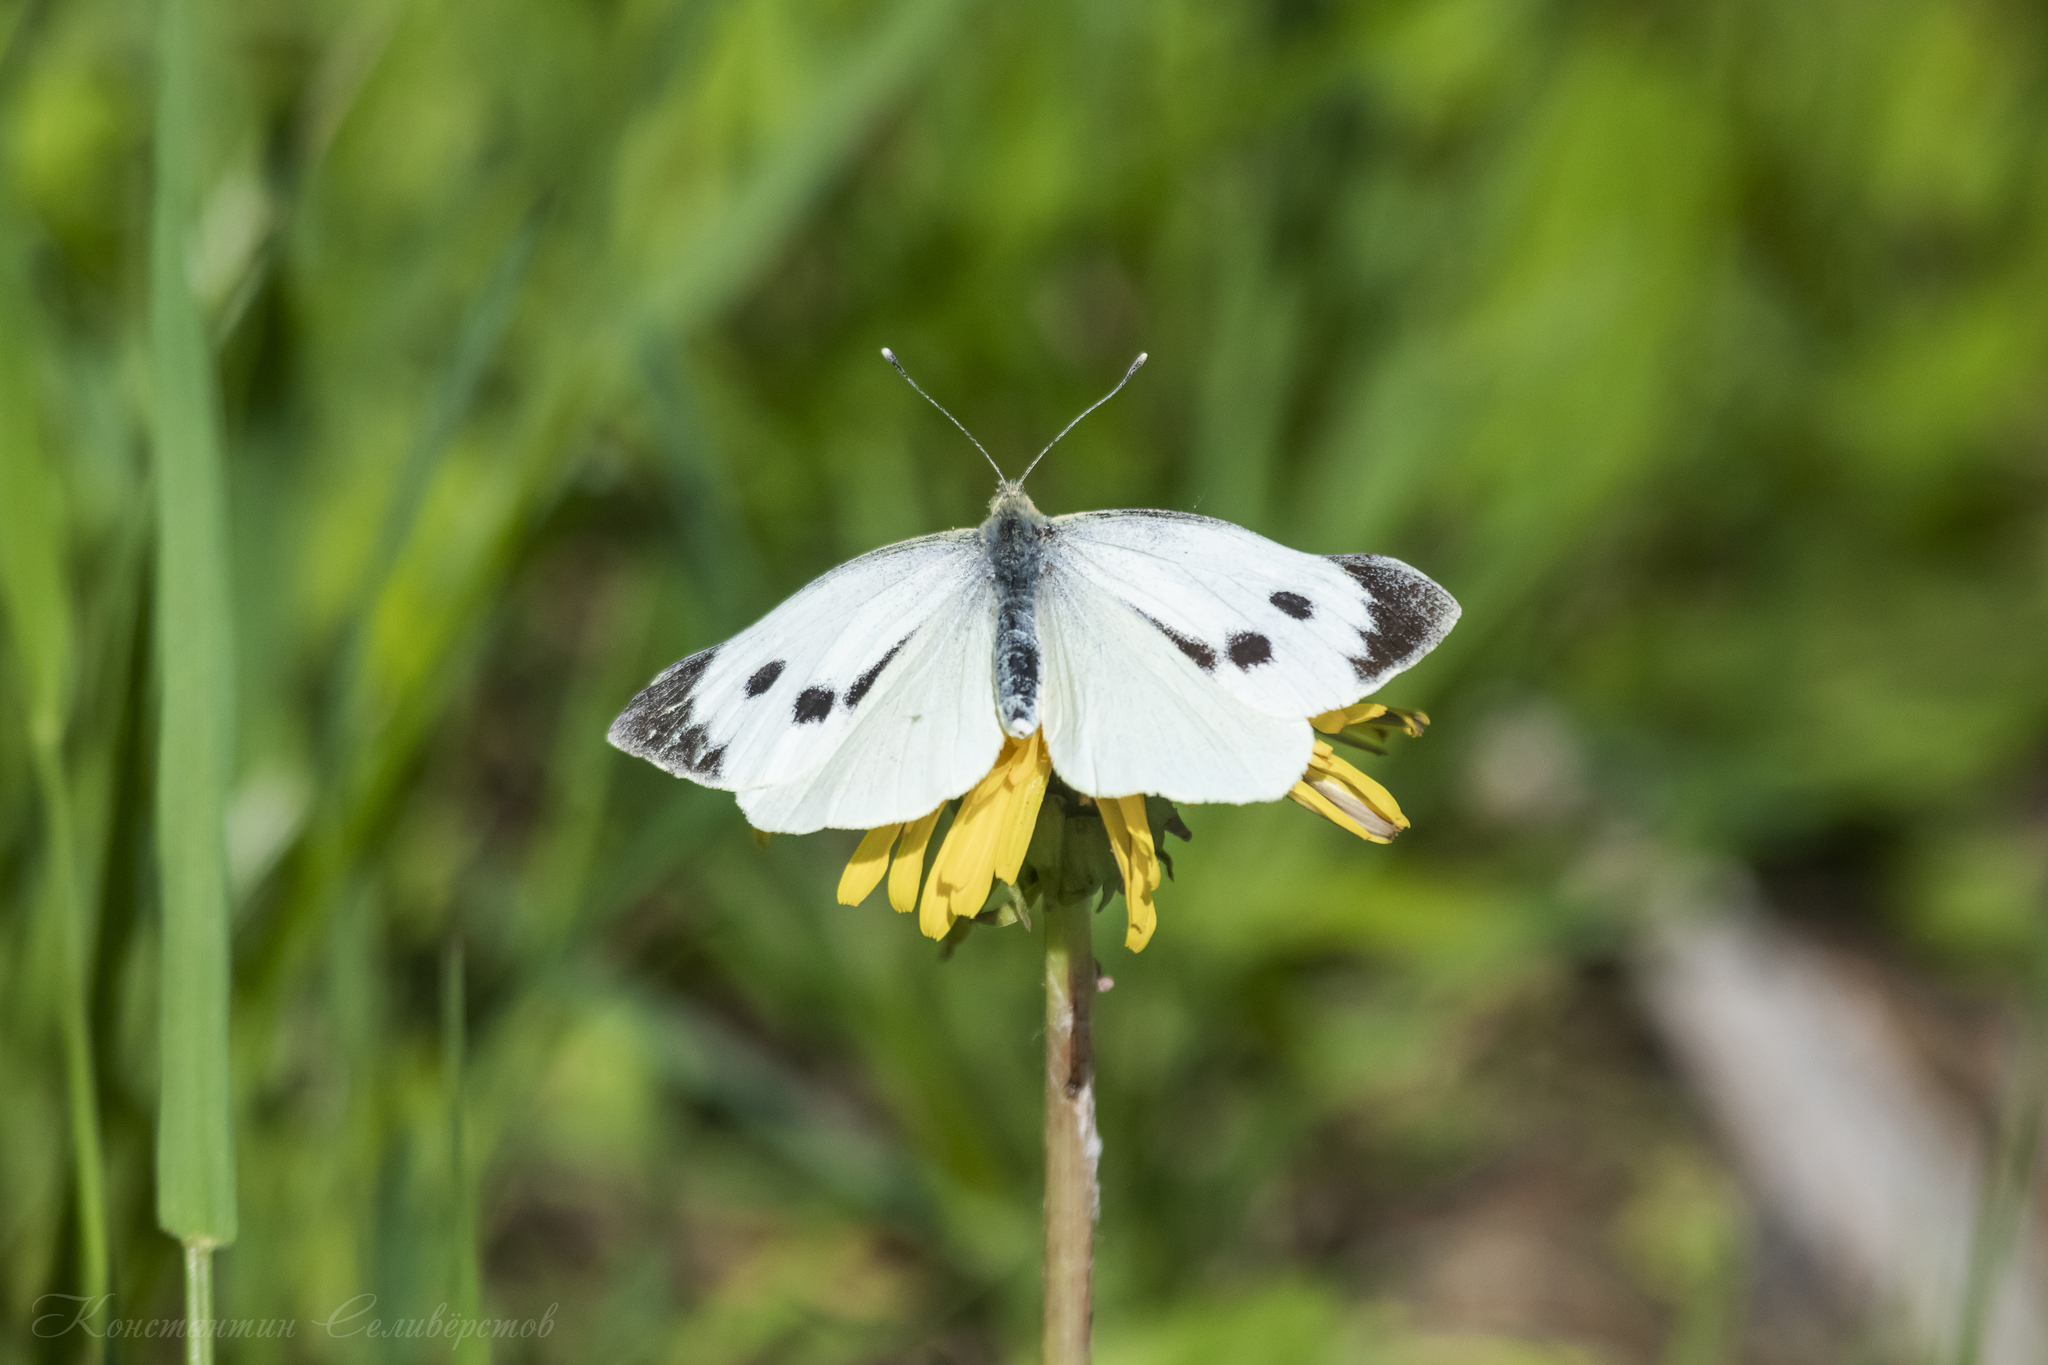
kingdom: Animalia
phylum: Arthropoda
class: Insecta
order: Lepidoptera
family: Pieridae
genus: Pieris
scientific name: Pieris brassicae
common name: Large white
